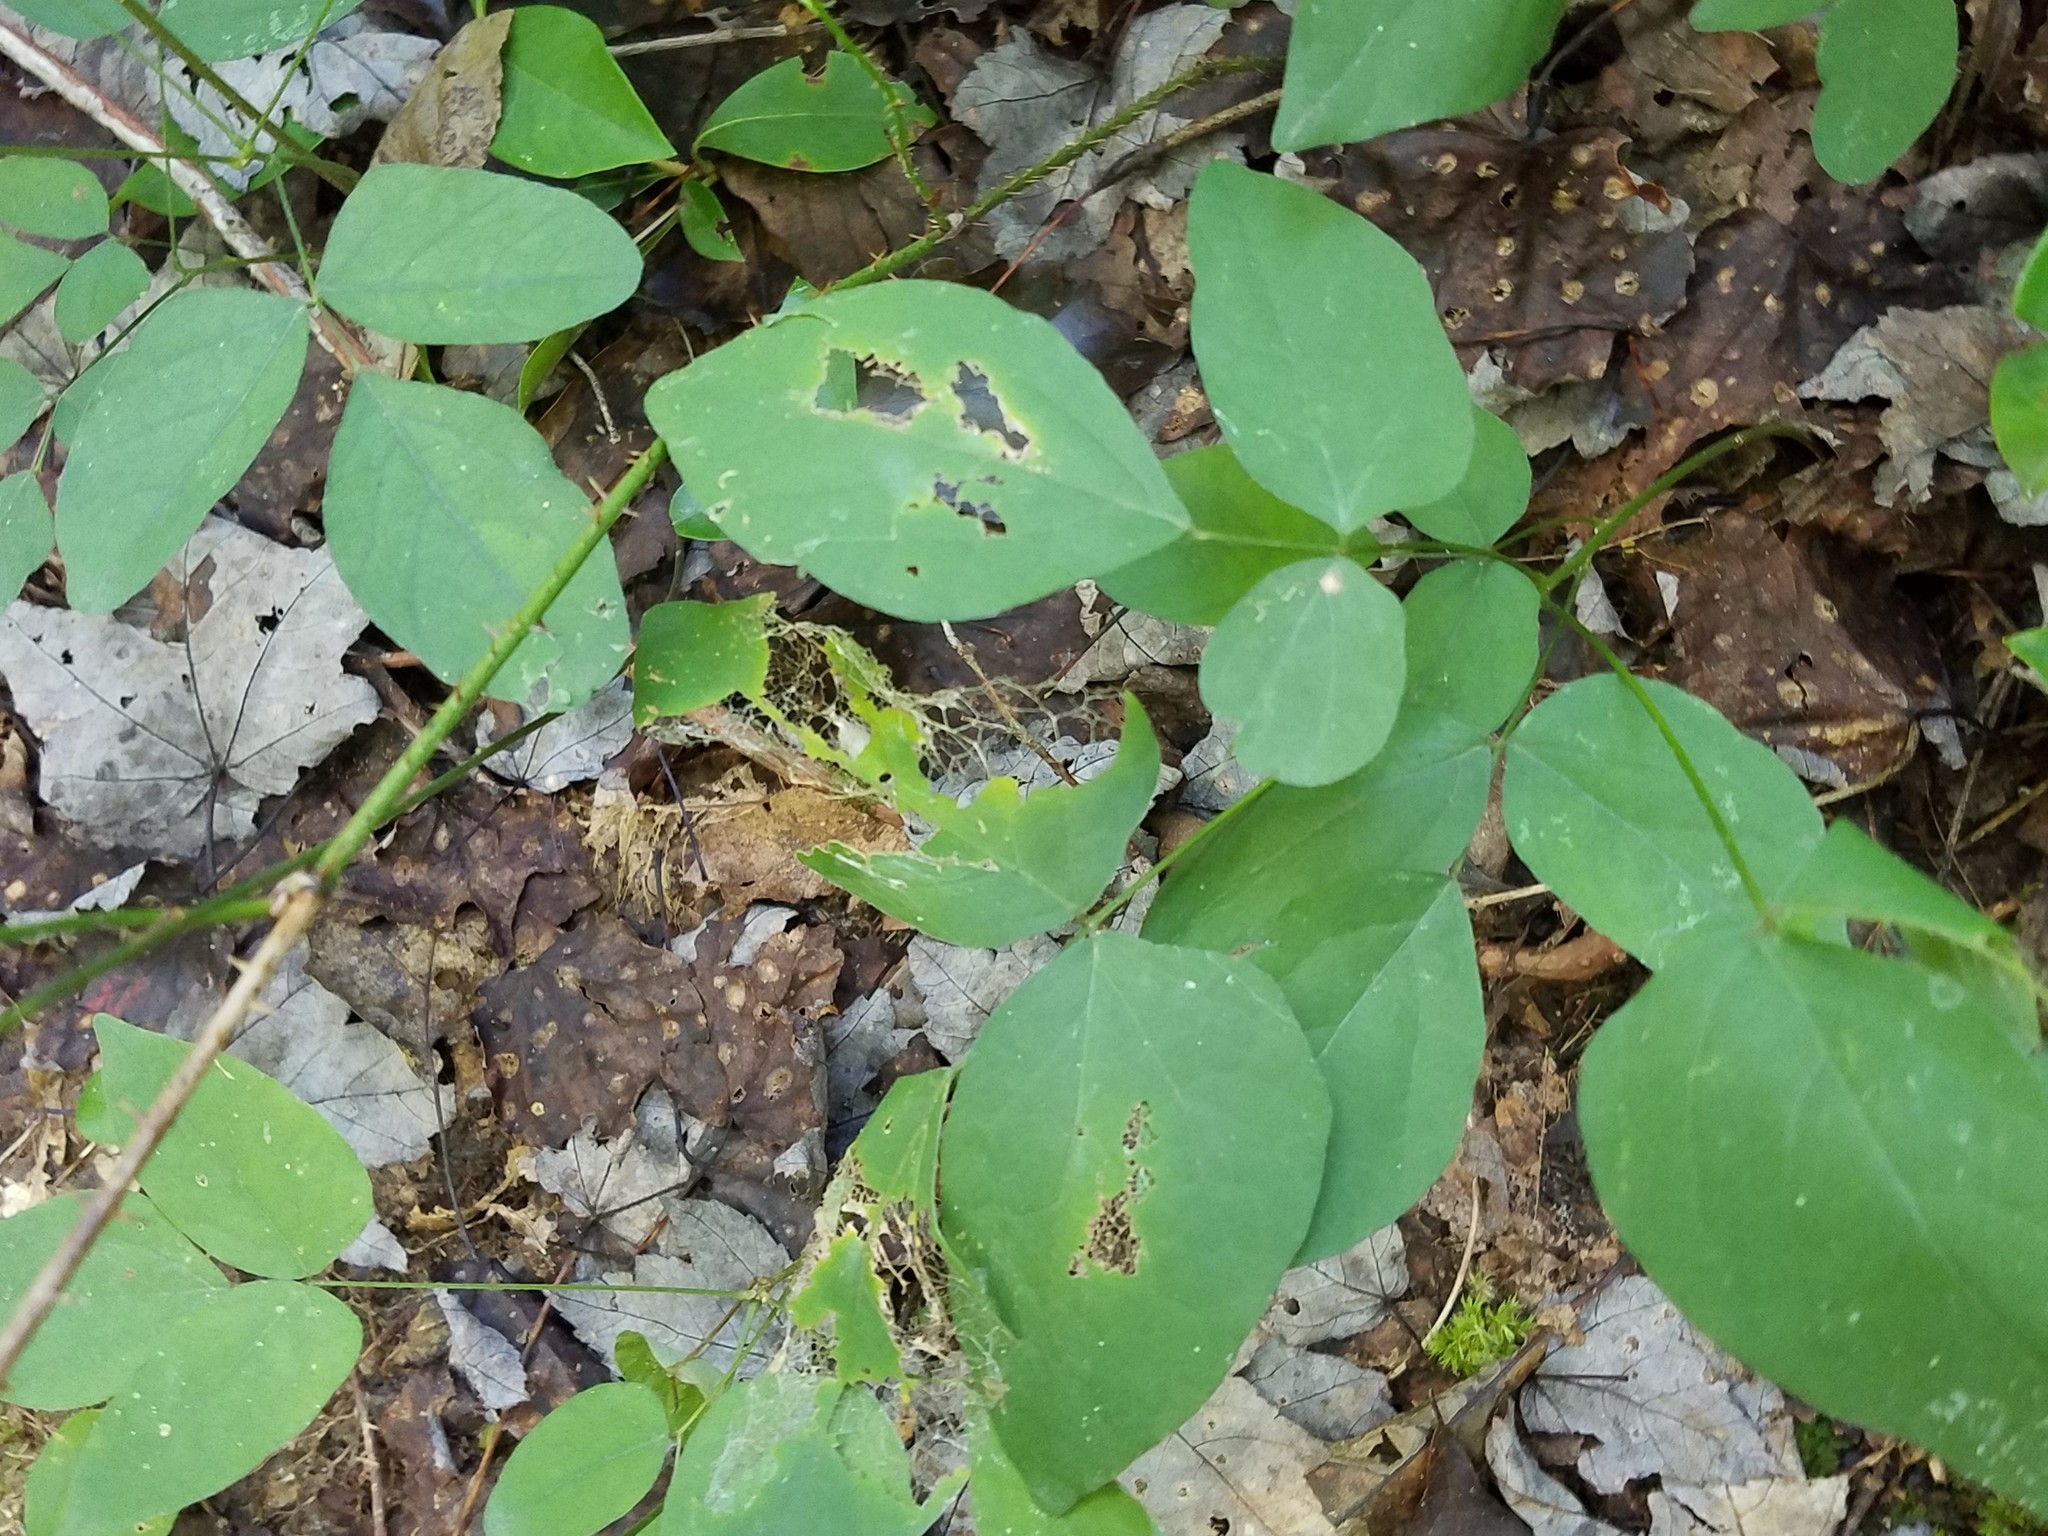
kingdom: Plantae
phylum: Tracheophyta
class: Magnoliopsida
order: Fabales
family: Fabaceae
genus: Hylodesmum
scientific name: Hylodesmum nudiflorum
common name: Bare-stemmed tick-trefoil
